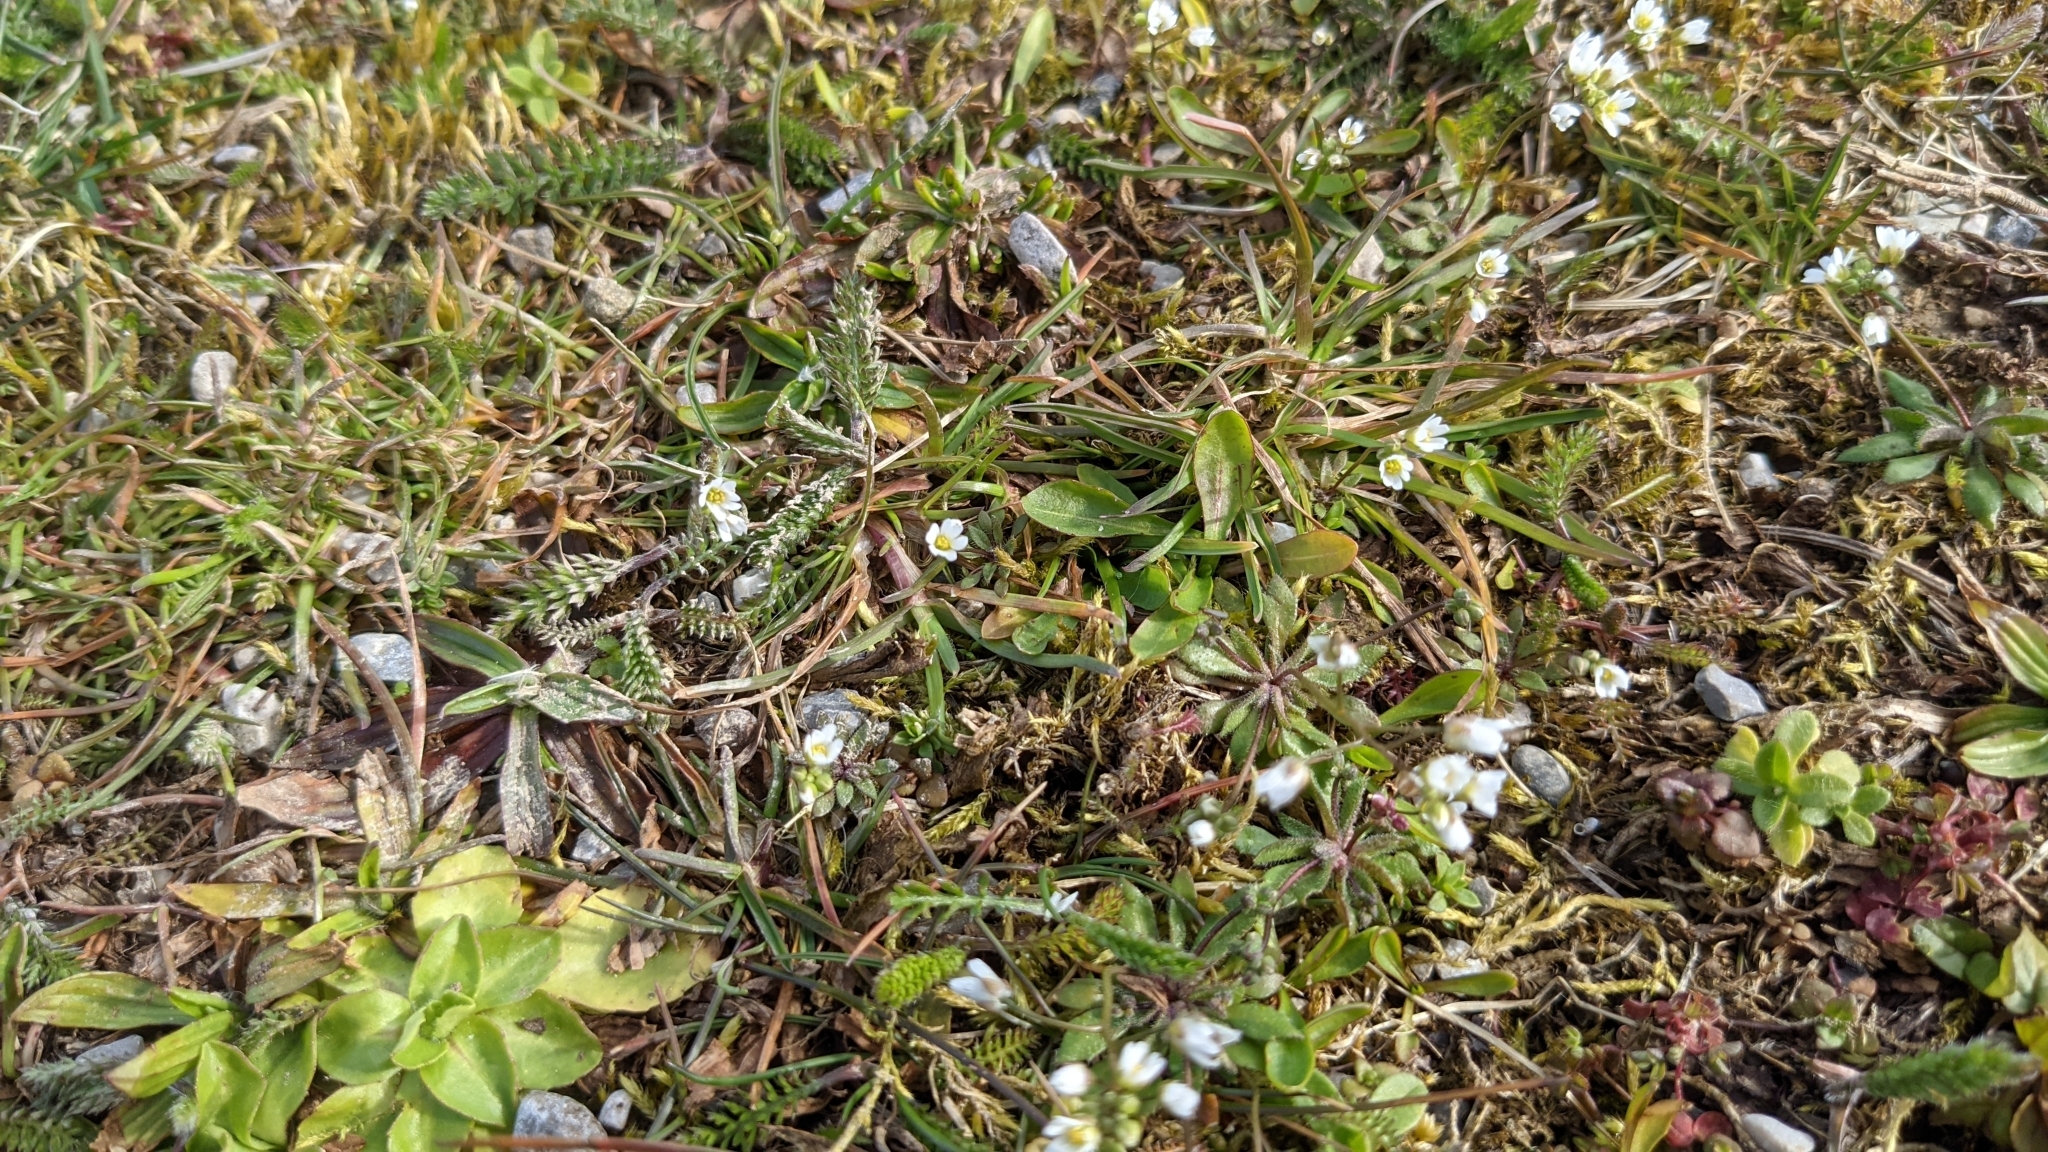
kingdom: Plantae
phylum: Tracheophyta
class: Magnoliopsida
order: Brassicales
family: Brassicaceae
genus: Draba
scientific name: Draba verna
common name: Spring draba
